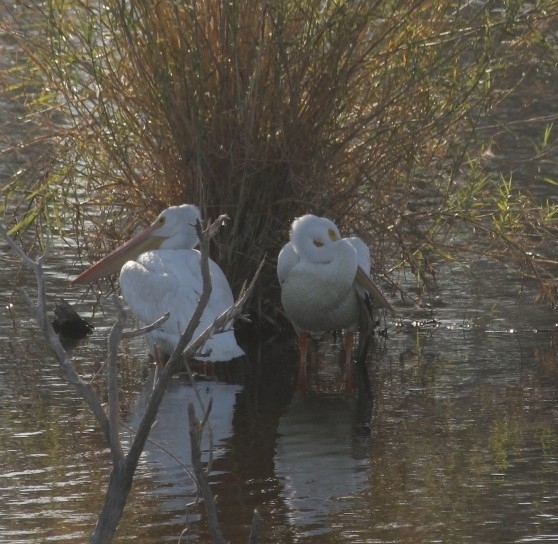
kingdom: Animalia
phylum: Chordata
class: Aves
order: Pelecaniformes
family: Pelecanidae
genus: Pelecanus
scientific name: Pelecanus erythrorhynchos
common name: American white pelican
